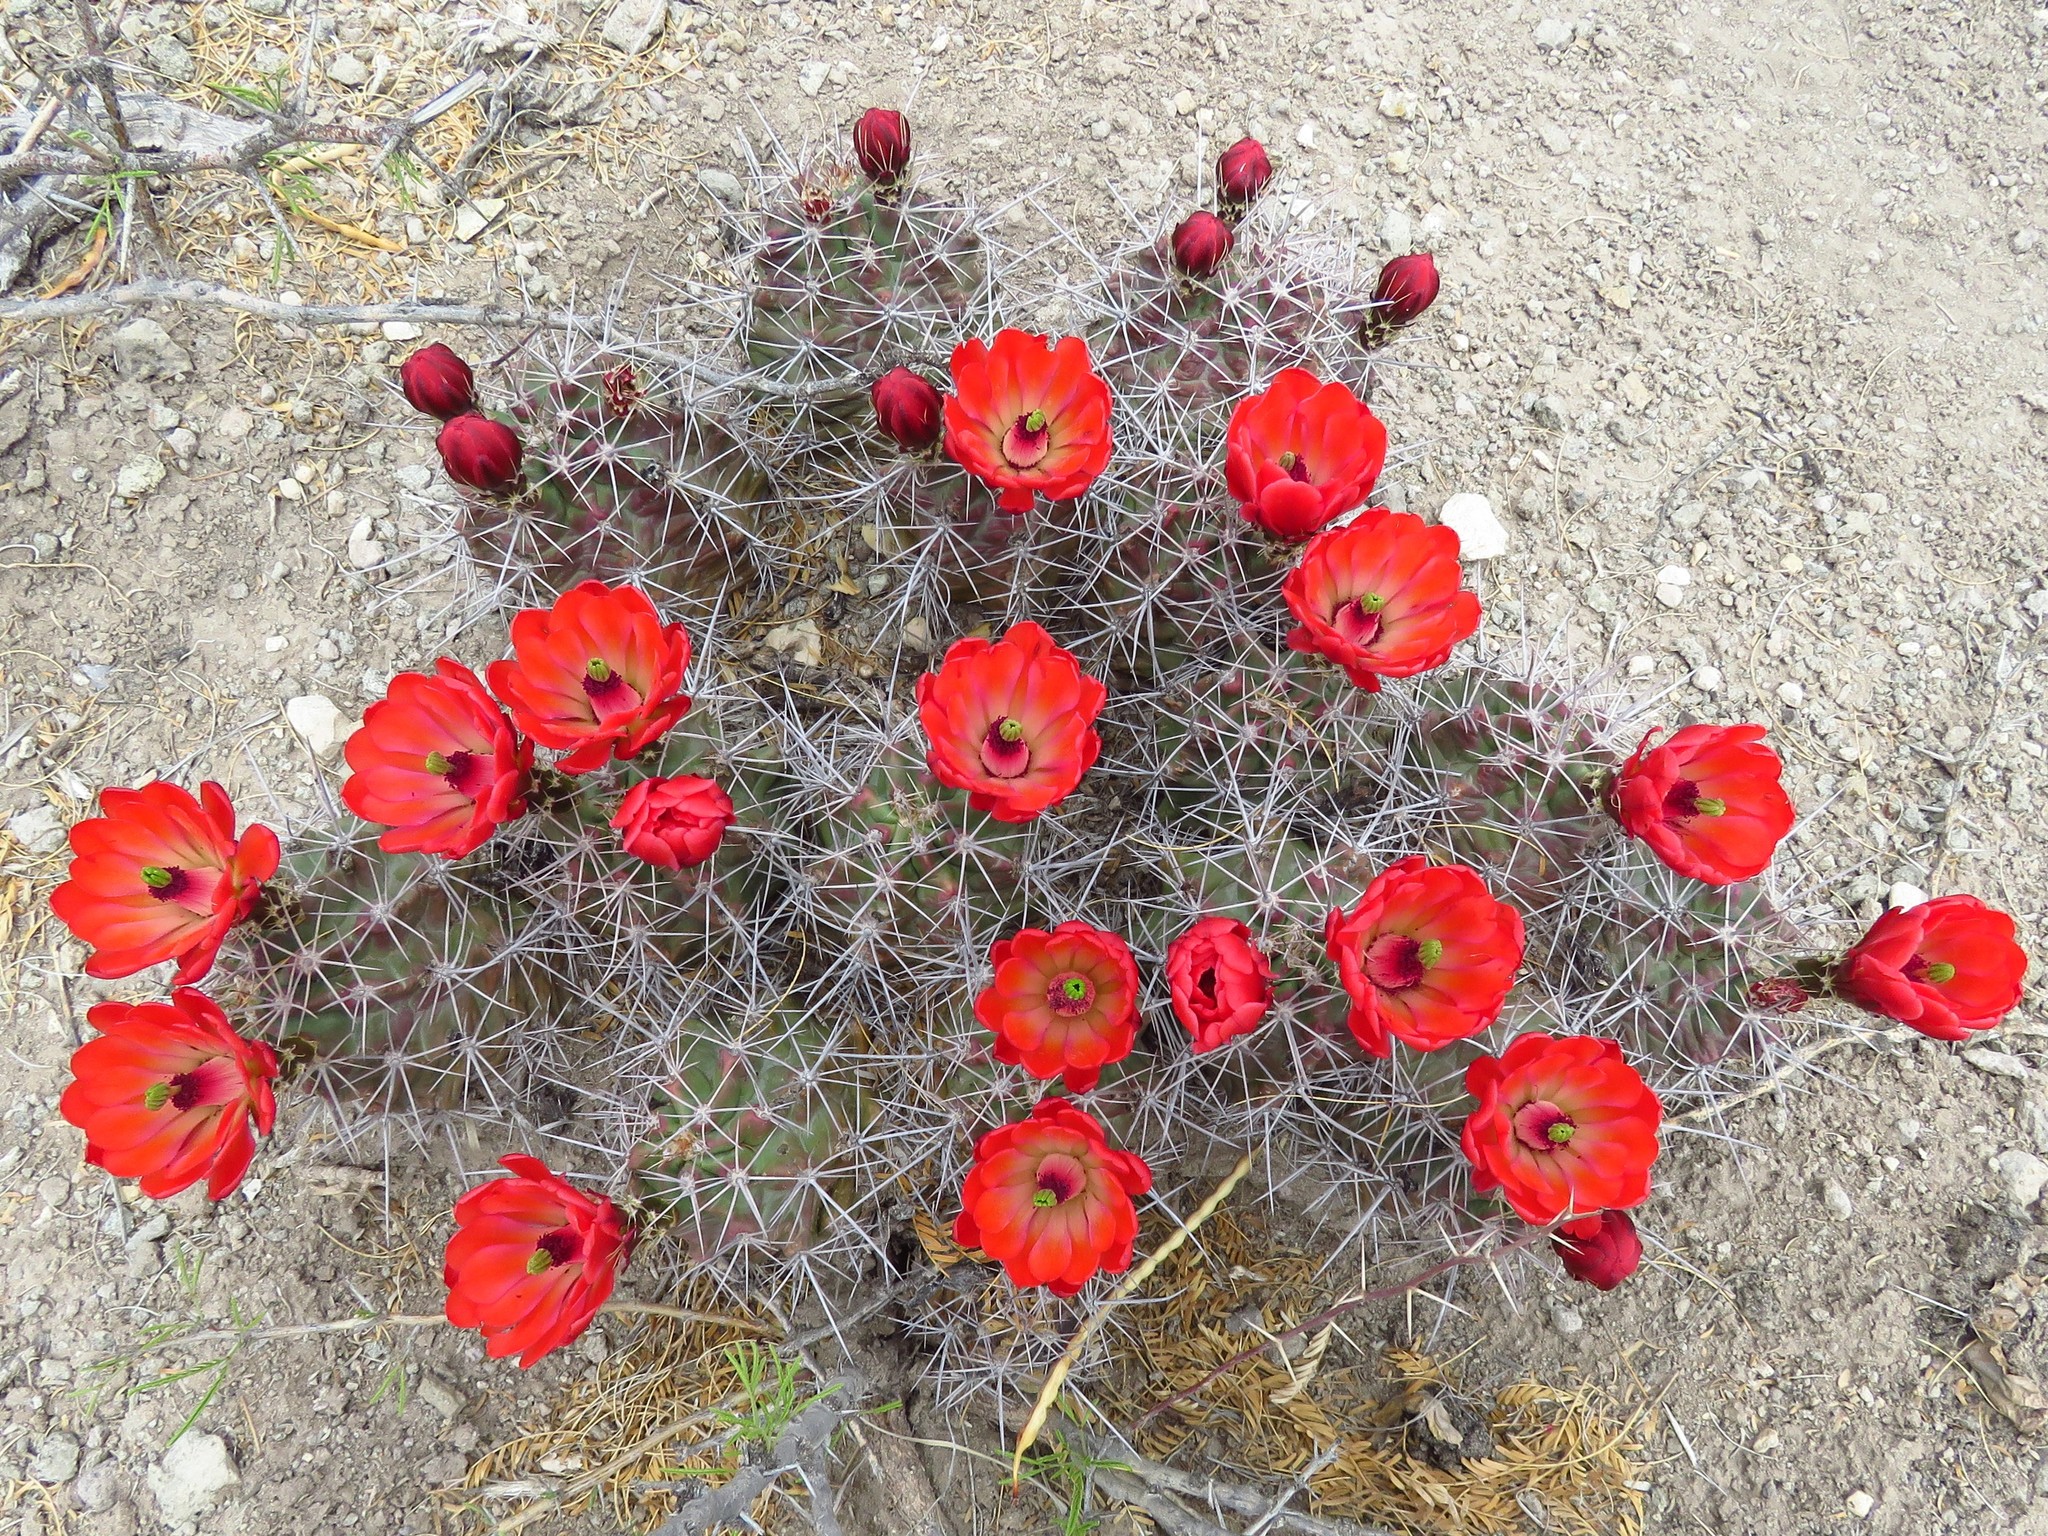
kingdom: Plantae
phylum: Tracheophyta
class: Magnoliopsida
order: Caryophyllales
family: Cactaceae
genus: Echinocereus
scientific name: Echinocereus coccineus
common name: Scarlet hedgehog cactus
